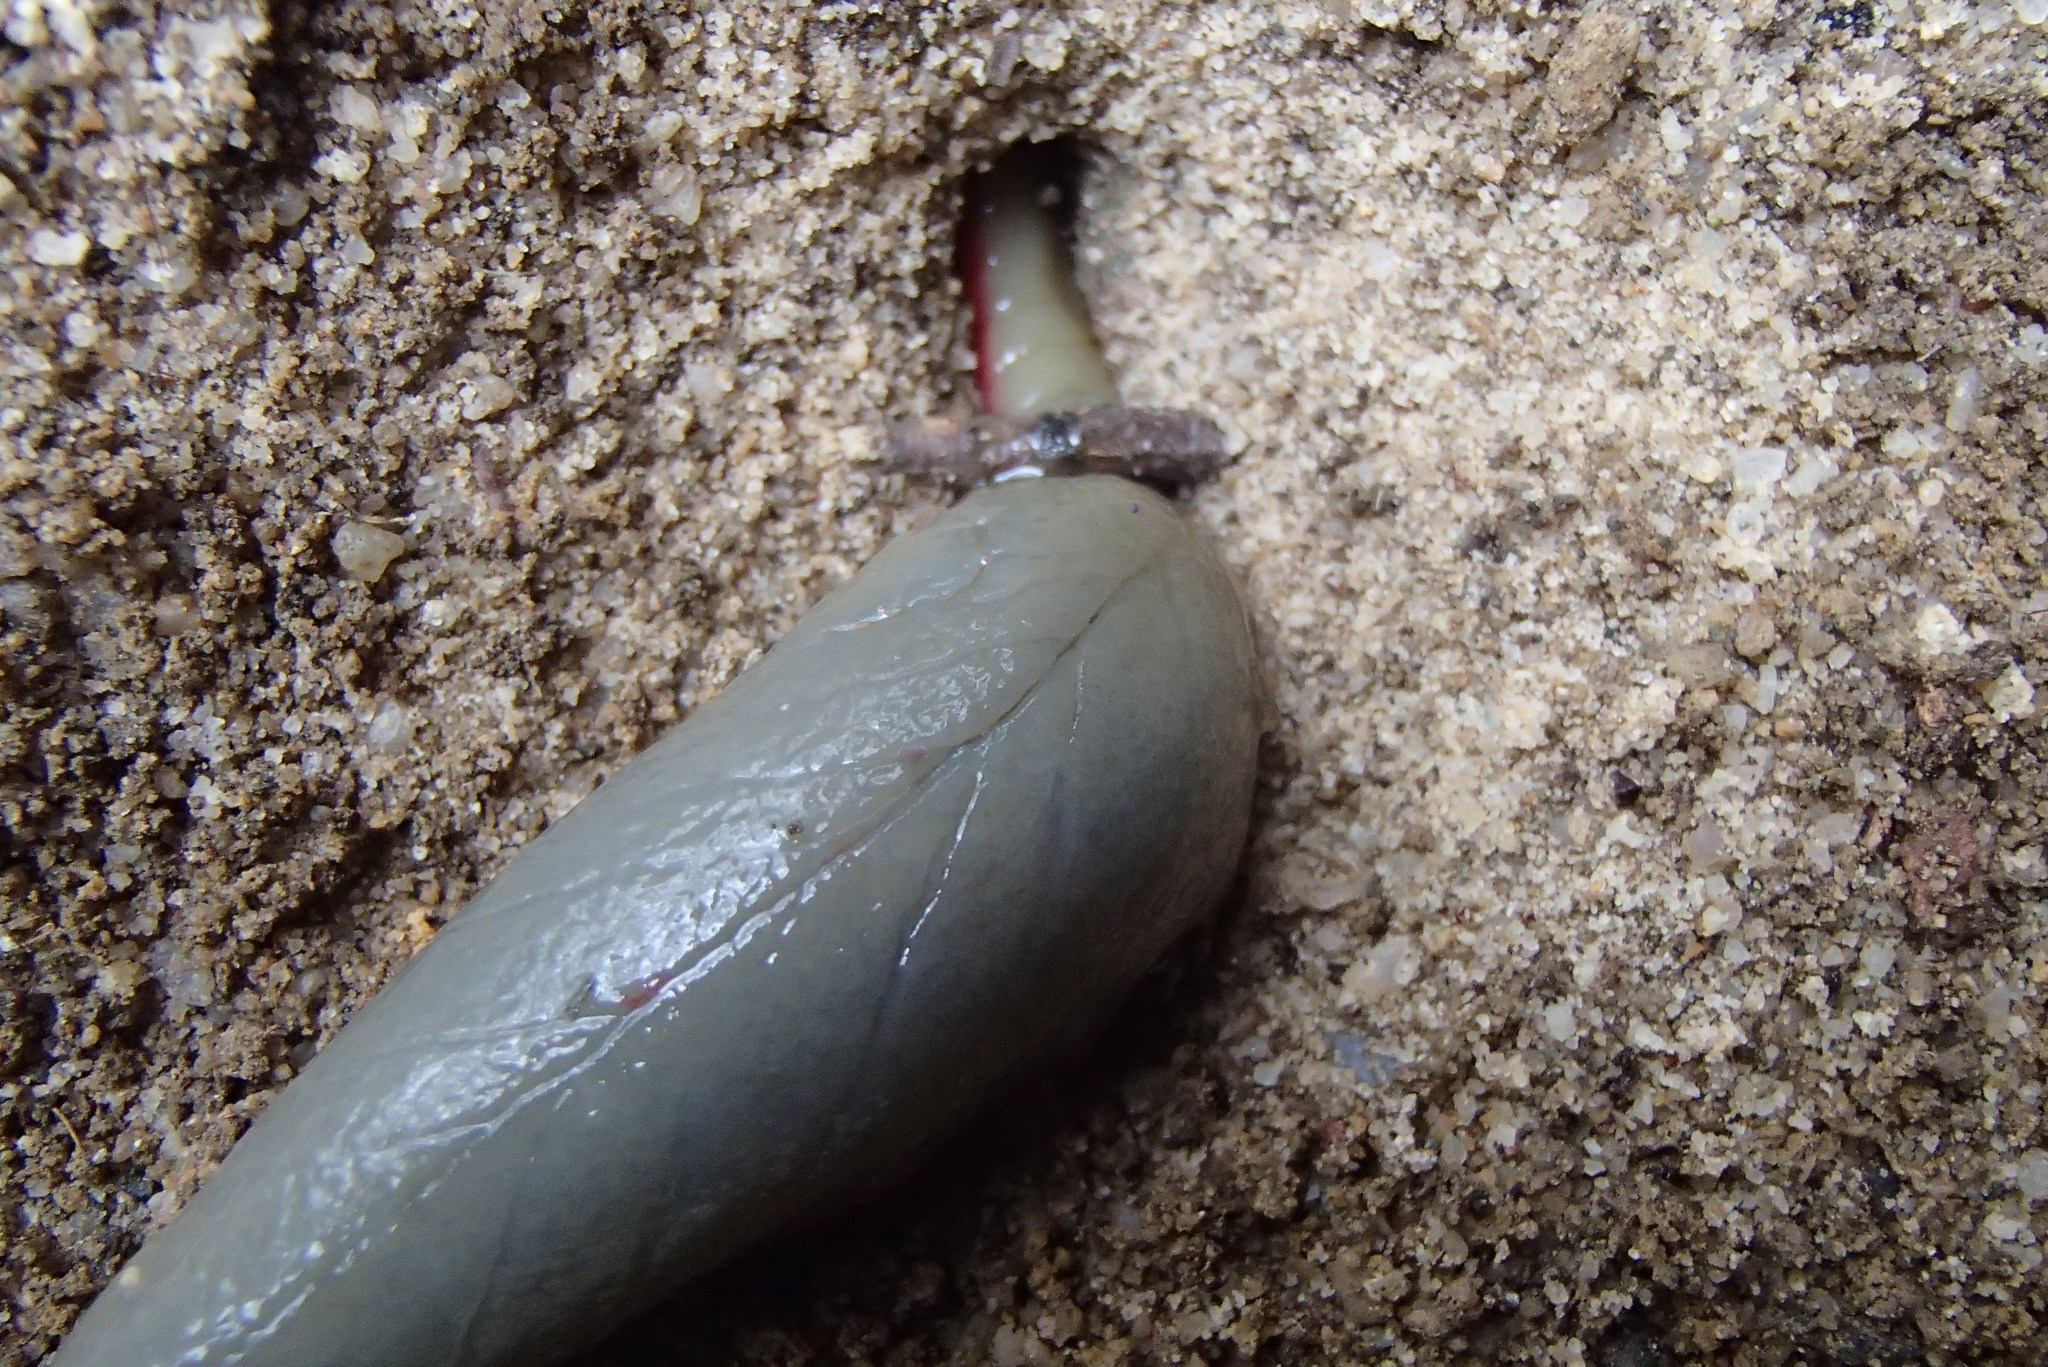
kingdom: Animalia
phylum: Mollusca
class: Gastropoda
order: Stylommatophora
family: Athoracophoridae
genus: Triboniophorus
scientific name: Triboniophorus graeffei
